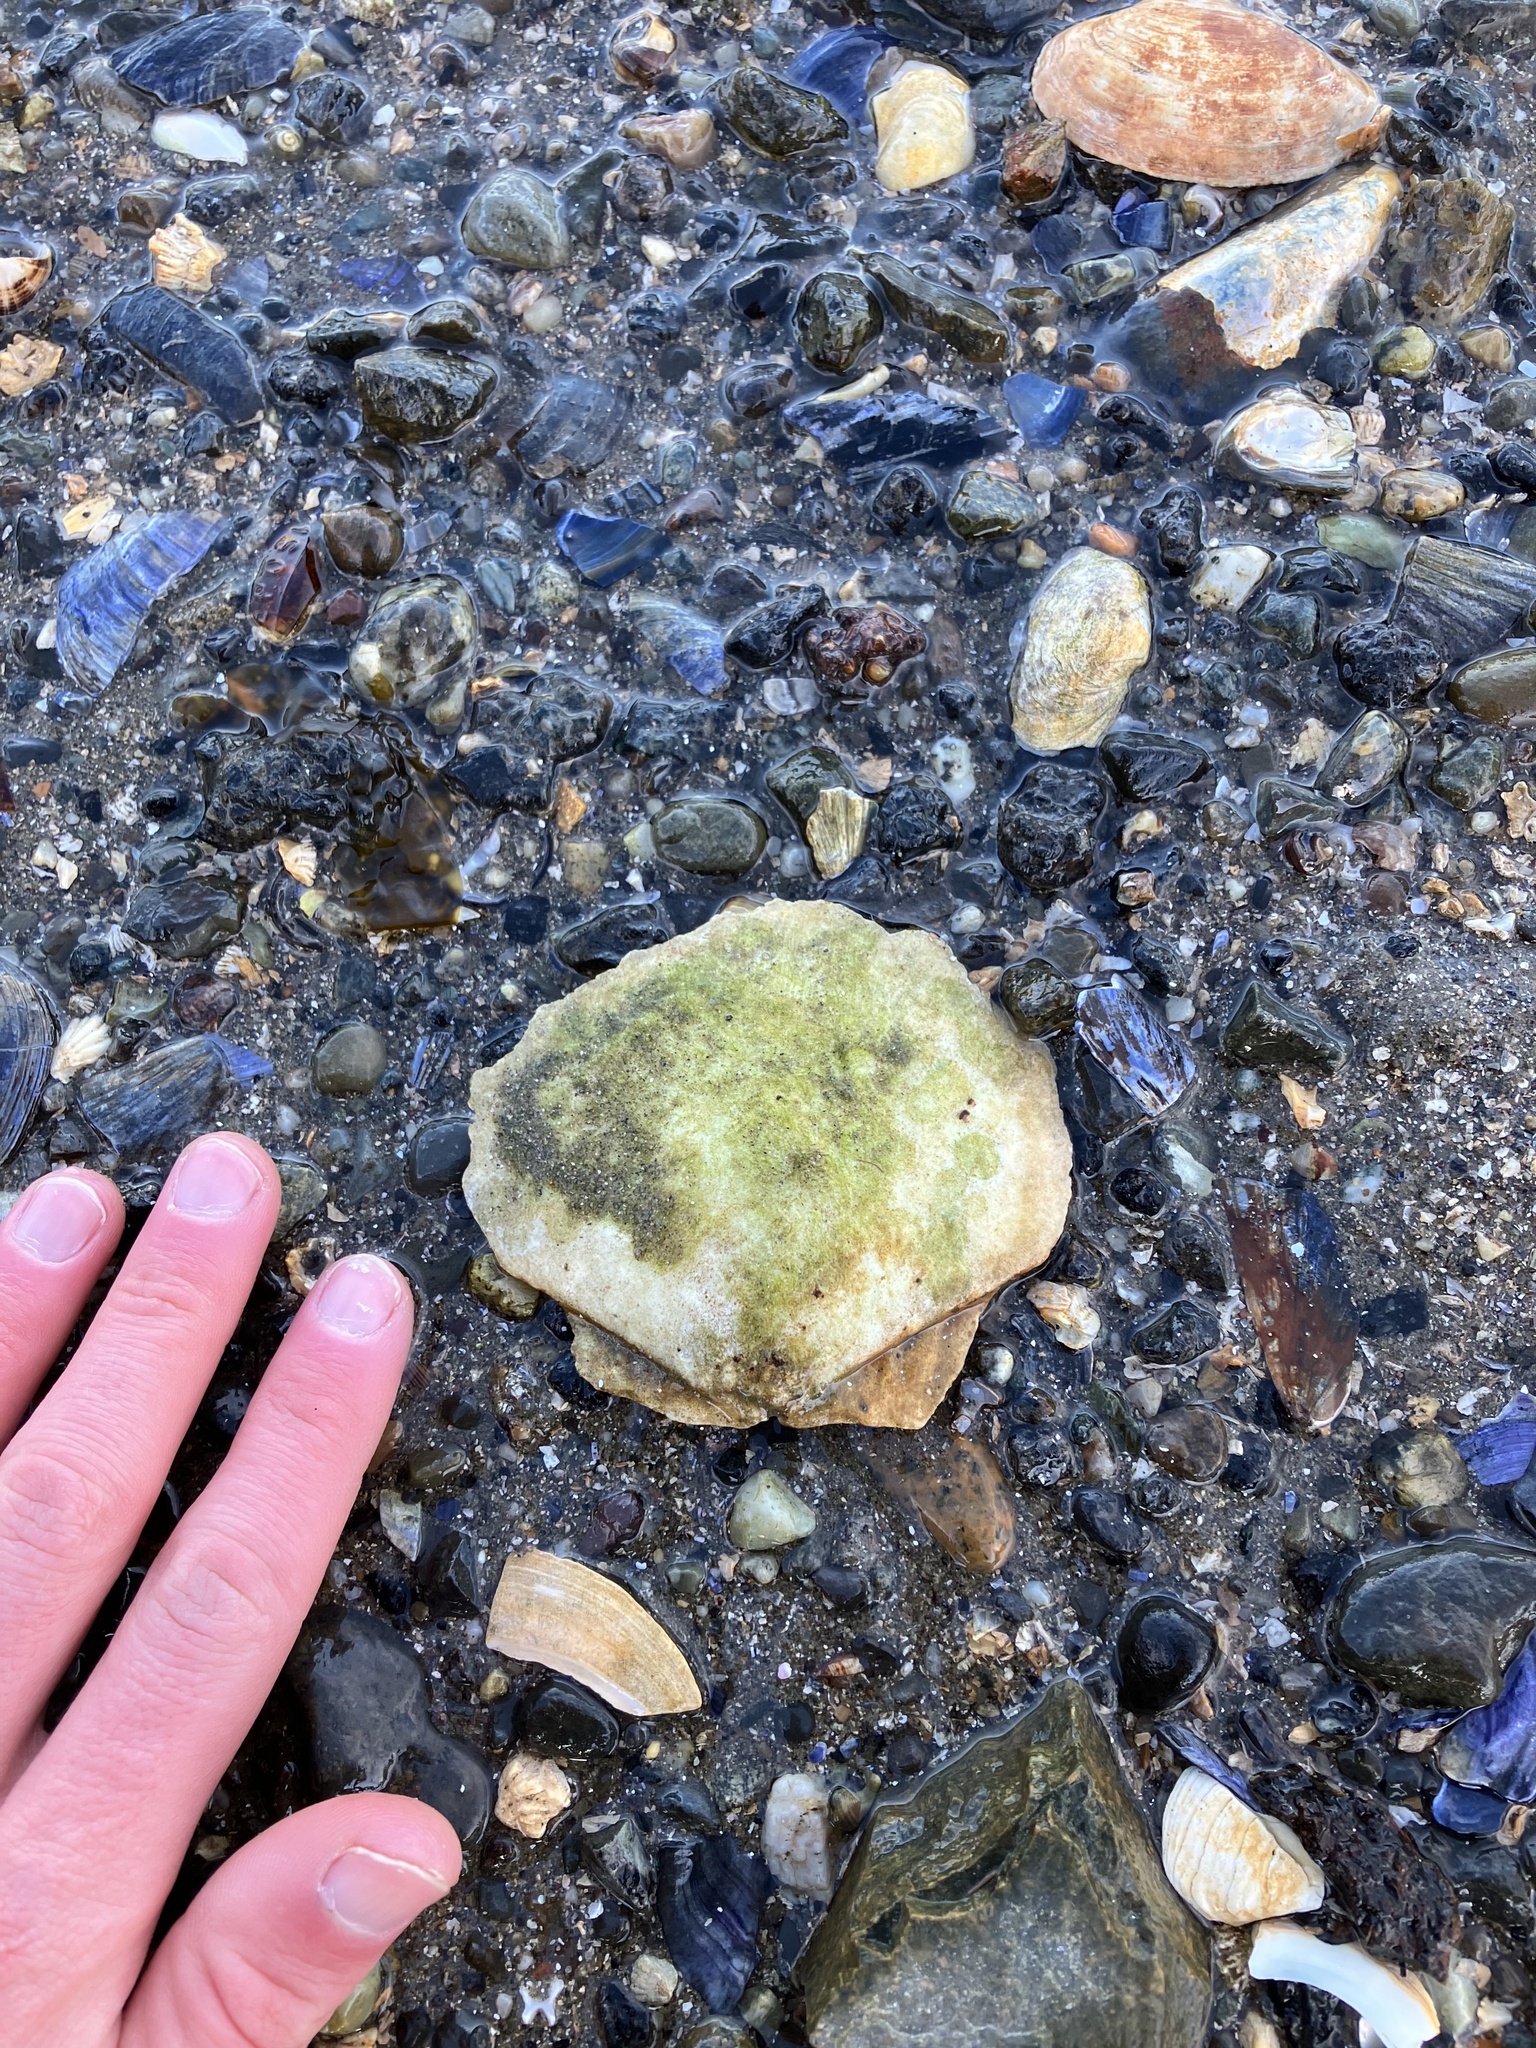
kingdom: Animalia
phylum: Mollusca
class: Bivalvia
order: Pectinida
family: Pectinidae
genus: Placopecten
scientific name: Placopecten magellanicus
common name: American sea scallop
